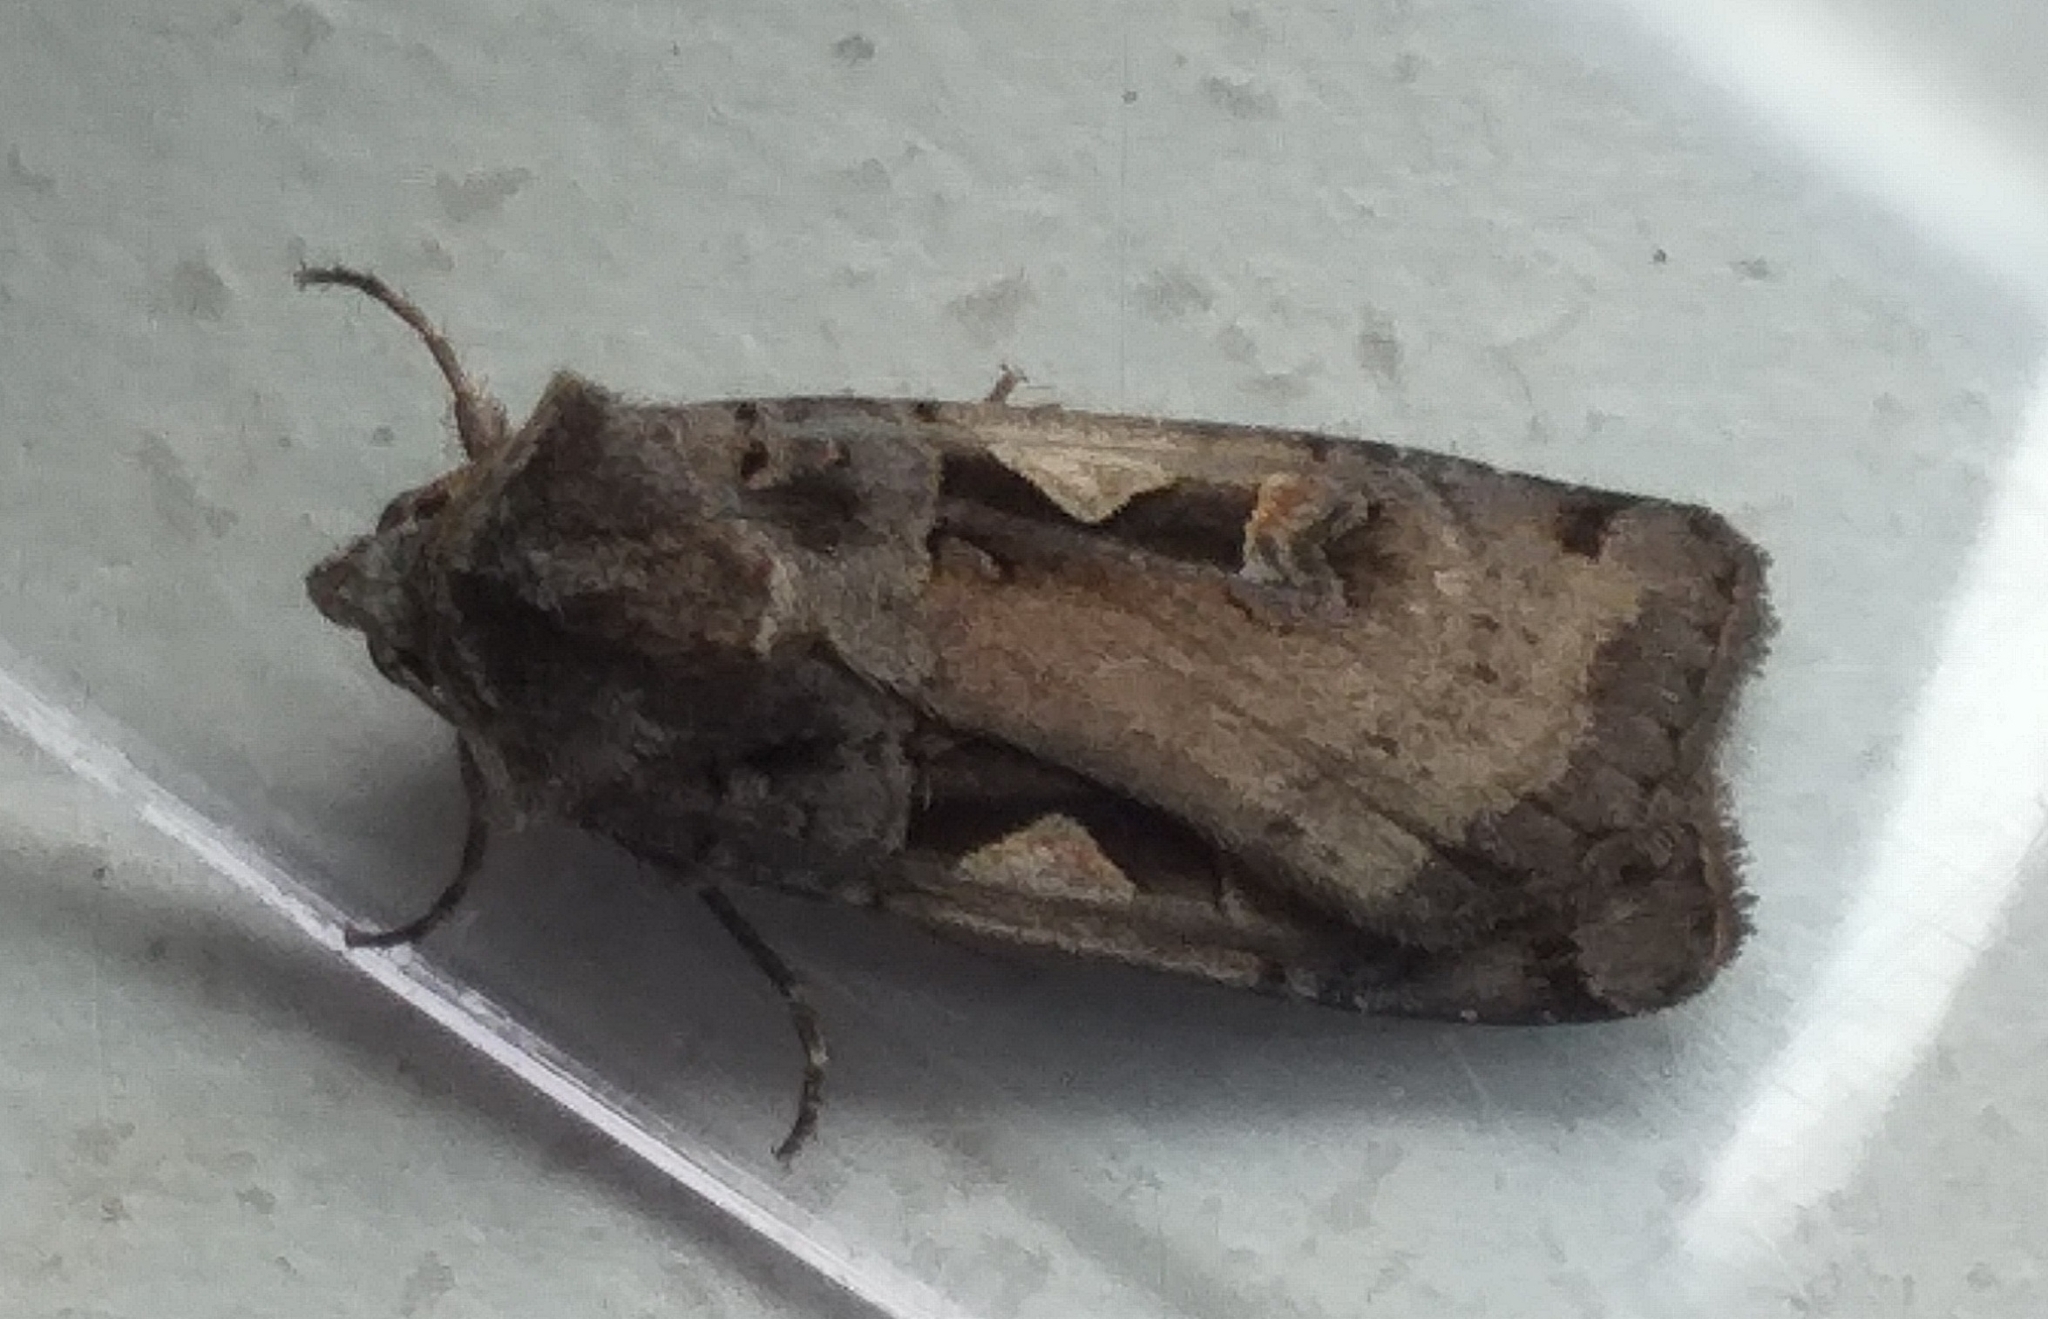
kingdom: Animalia
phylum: Arthropoda
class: Insecta
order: Lepidoptera
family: Noctuidae
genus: Xestia
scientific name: Xestia c-nigrum
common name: Setaceous hebrew character
